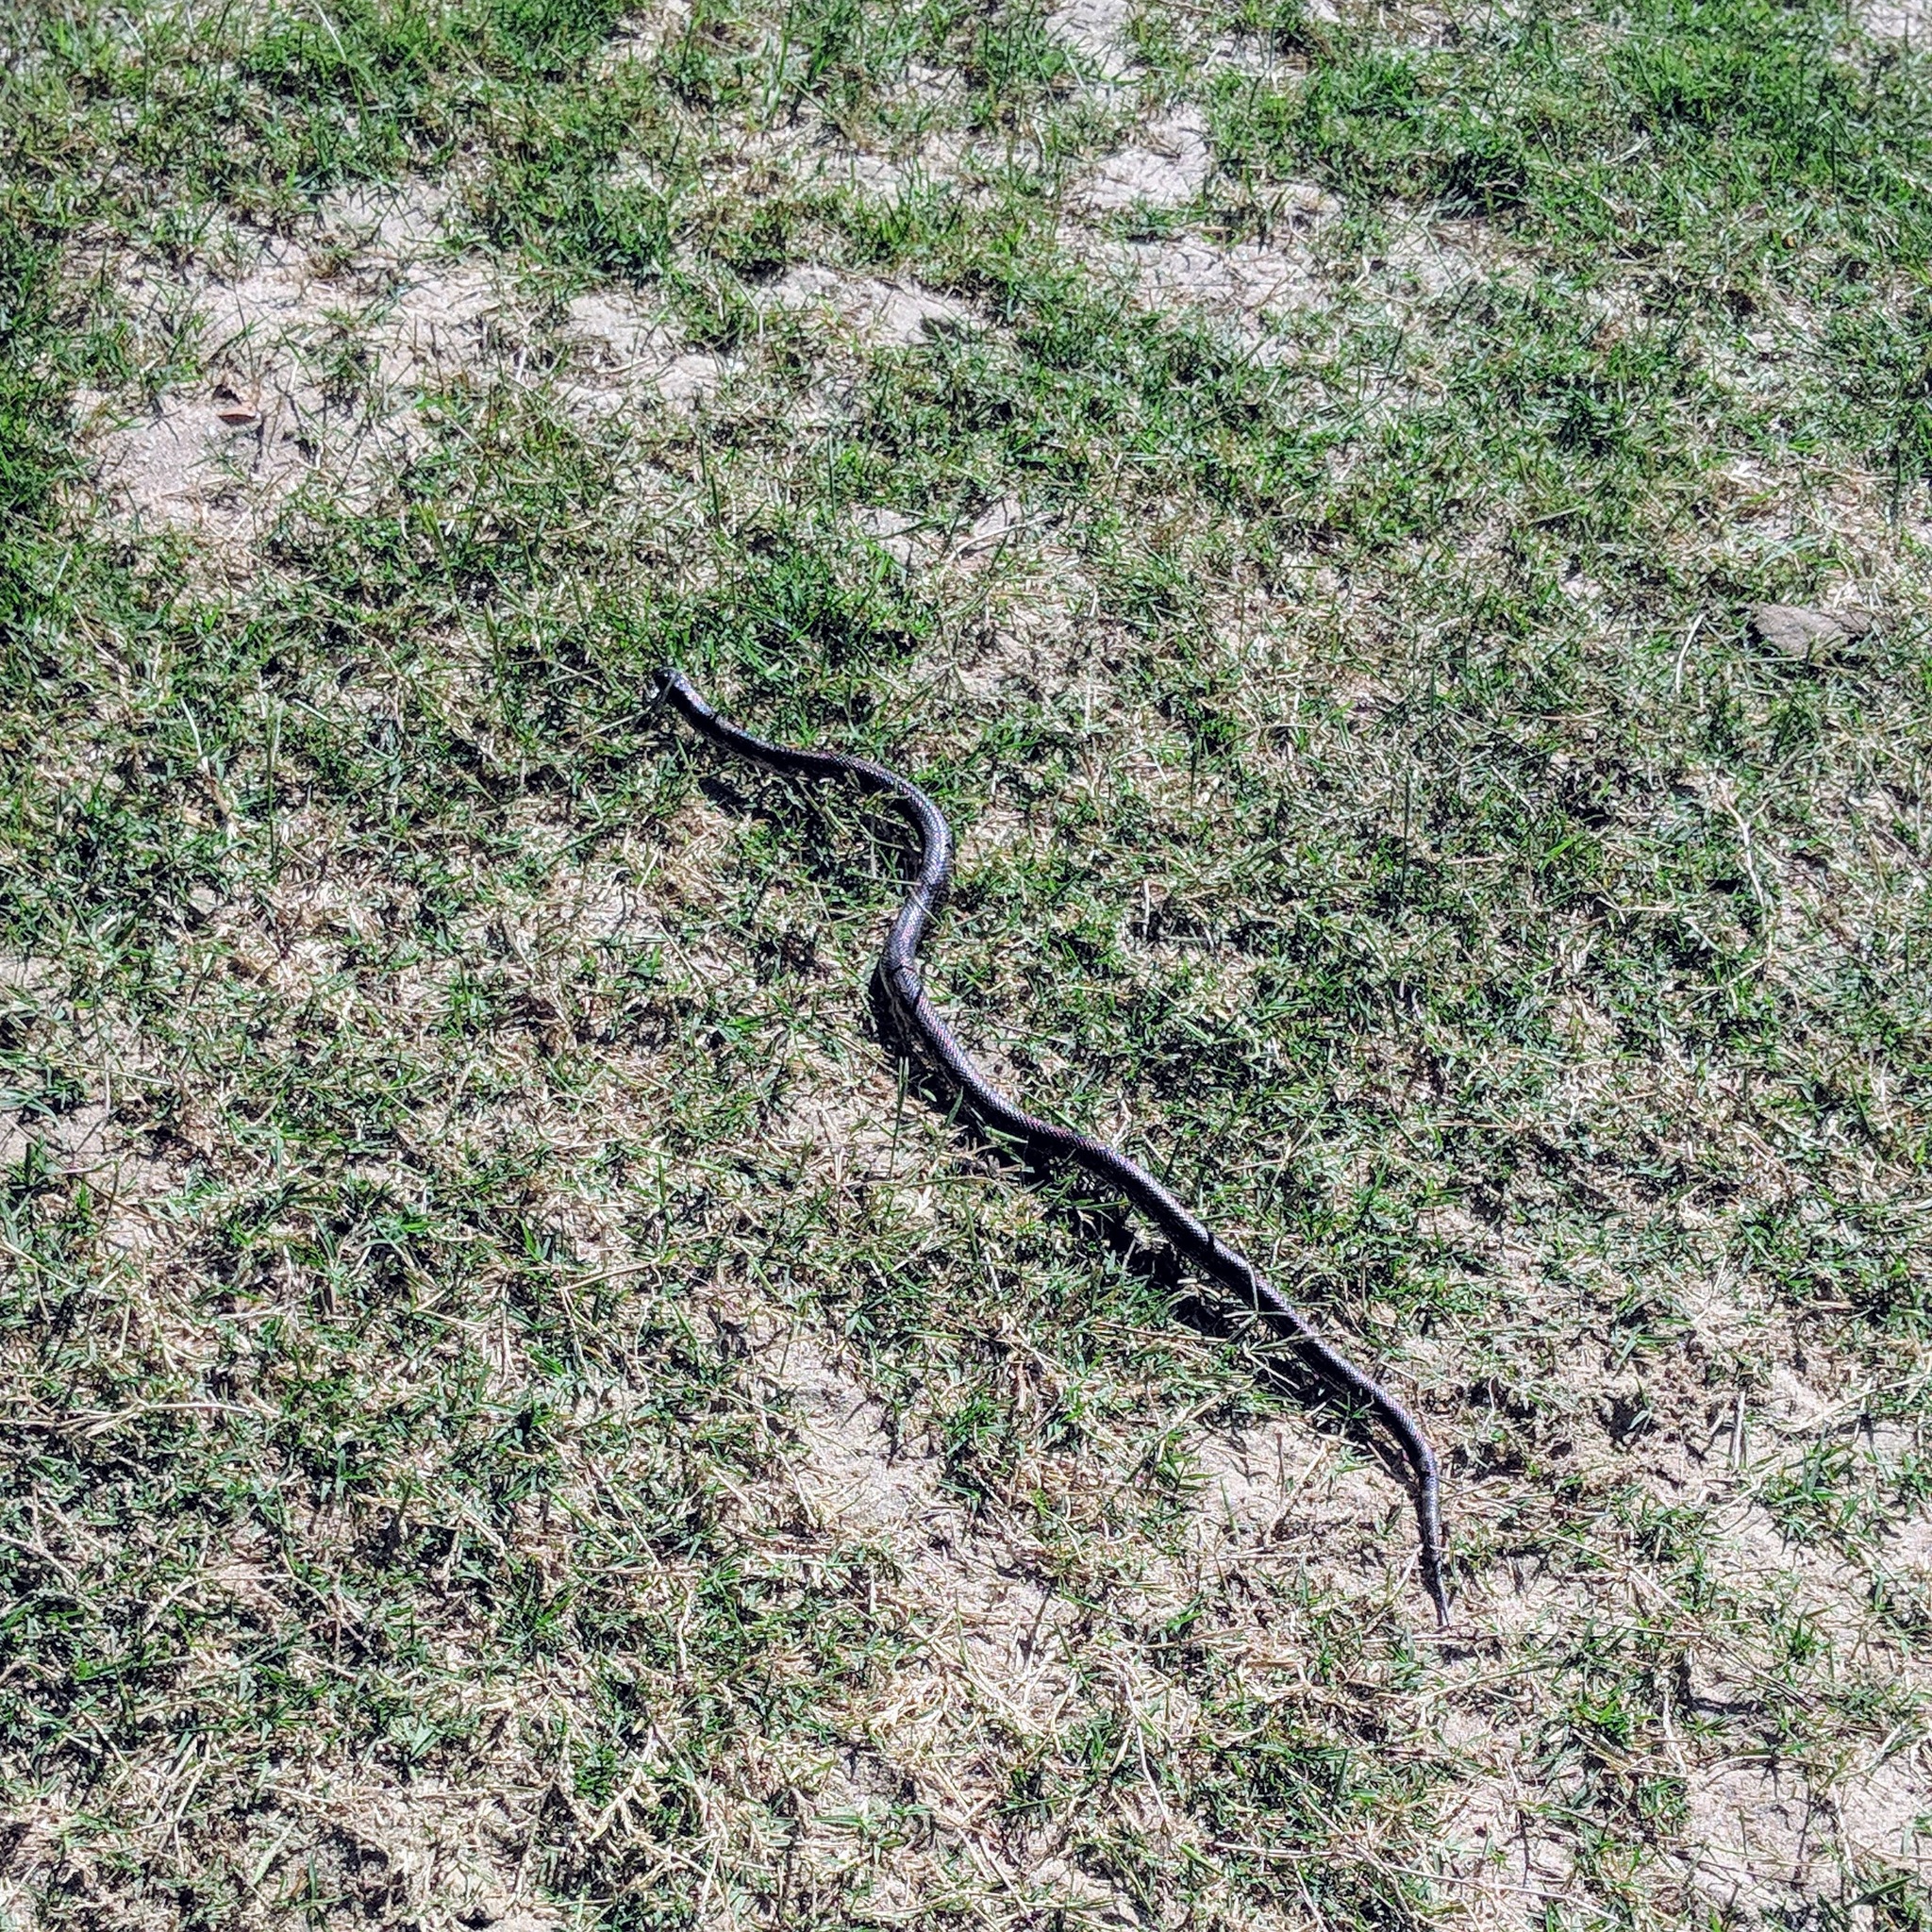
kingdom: Animalia
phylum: Chordata
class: Squamata
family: Colubridae
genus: Lampropeltis
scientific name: Lampropeltis californiae
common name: California kingsnake
